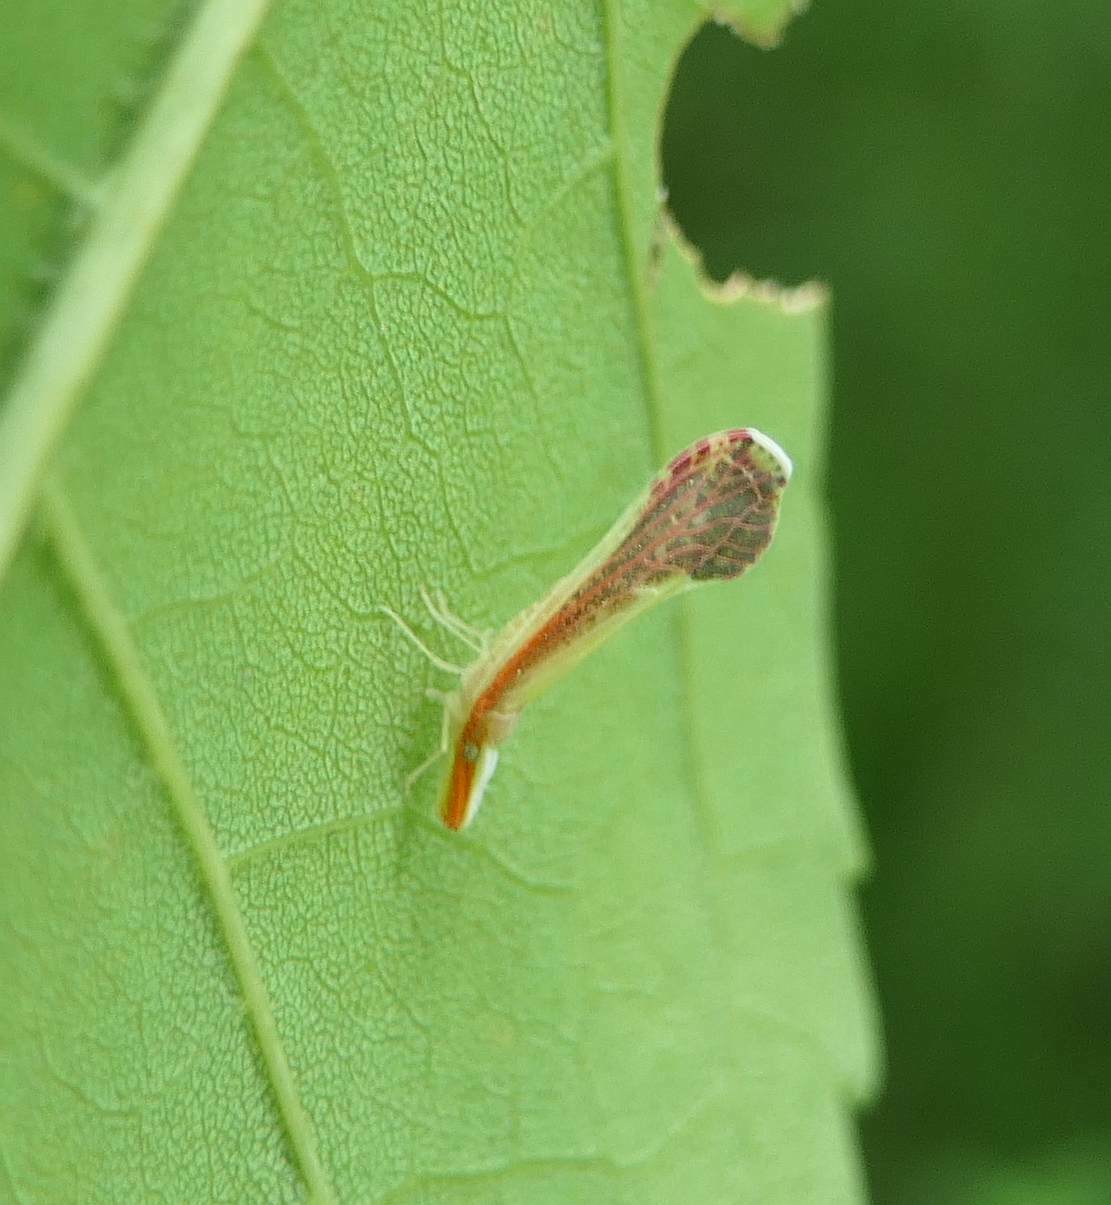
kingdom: Animalia
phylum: Arthropoda
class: Insecta
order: Hemiptera
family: Derbidae
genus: Shellenius
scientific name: Shellenius ballii
